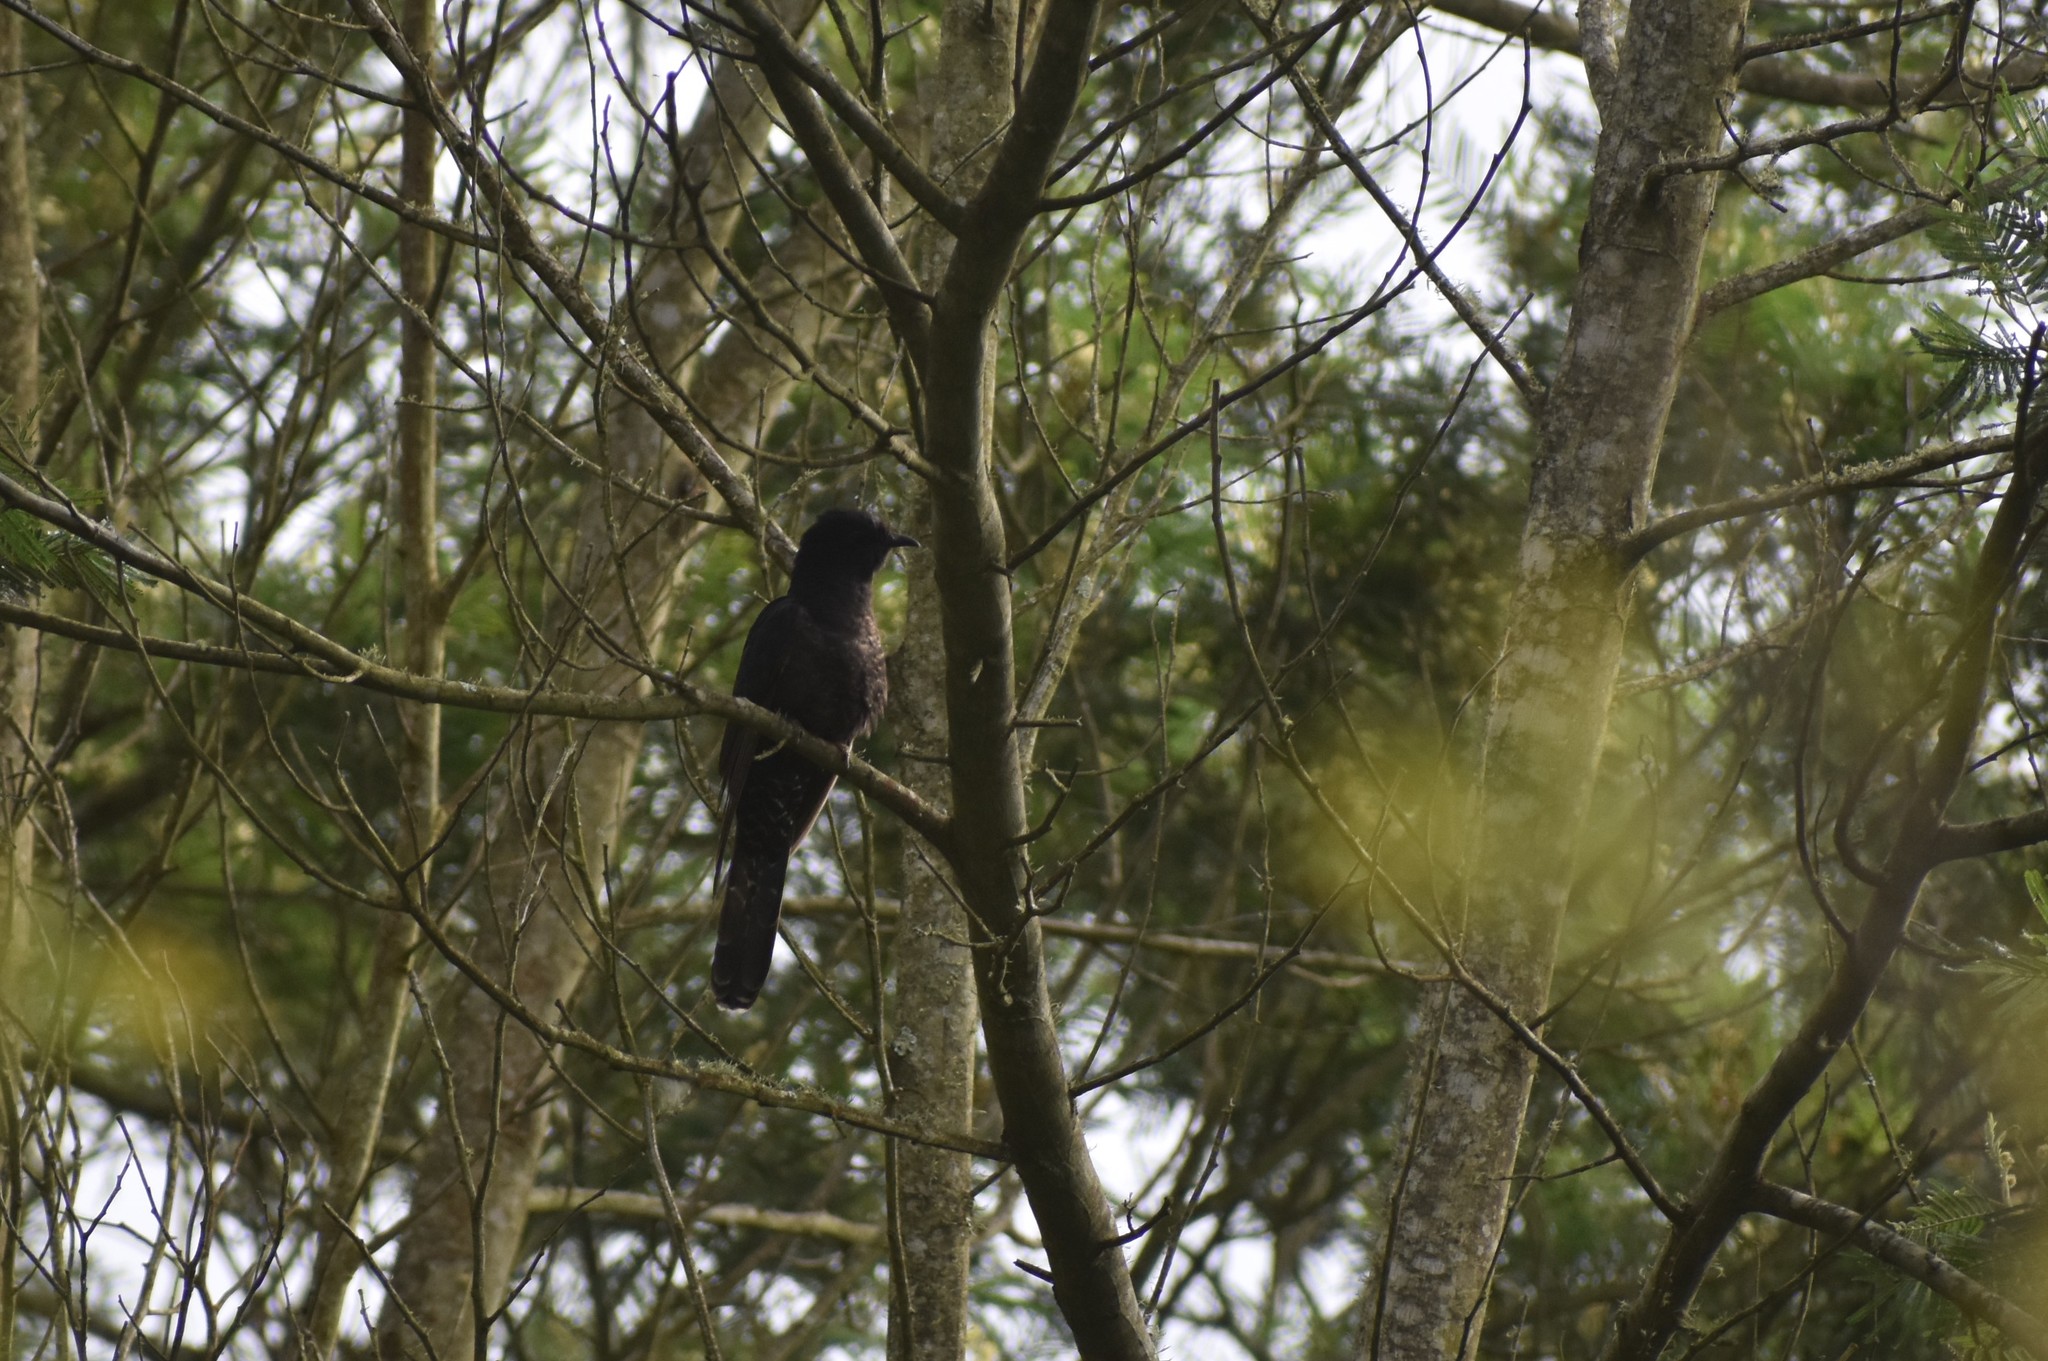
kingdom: Animalia
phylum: Chordata
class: Aves
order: Cuculiformes
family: Cuculidae
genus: Cuculus
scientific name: Cuculus clamosus
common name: Black cuckoo
